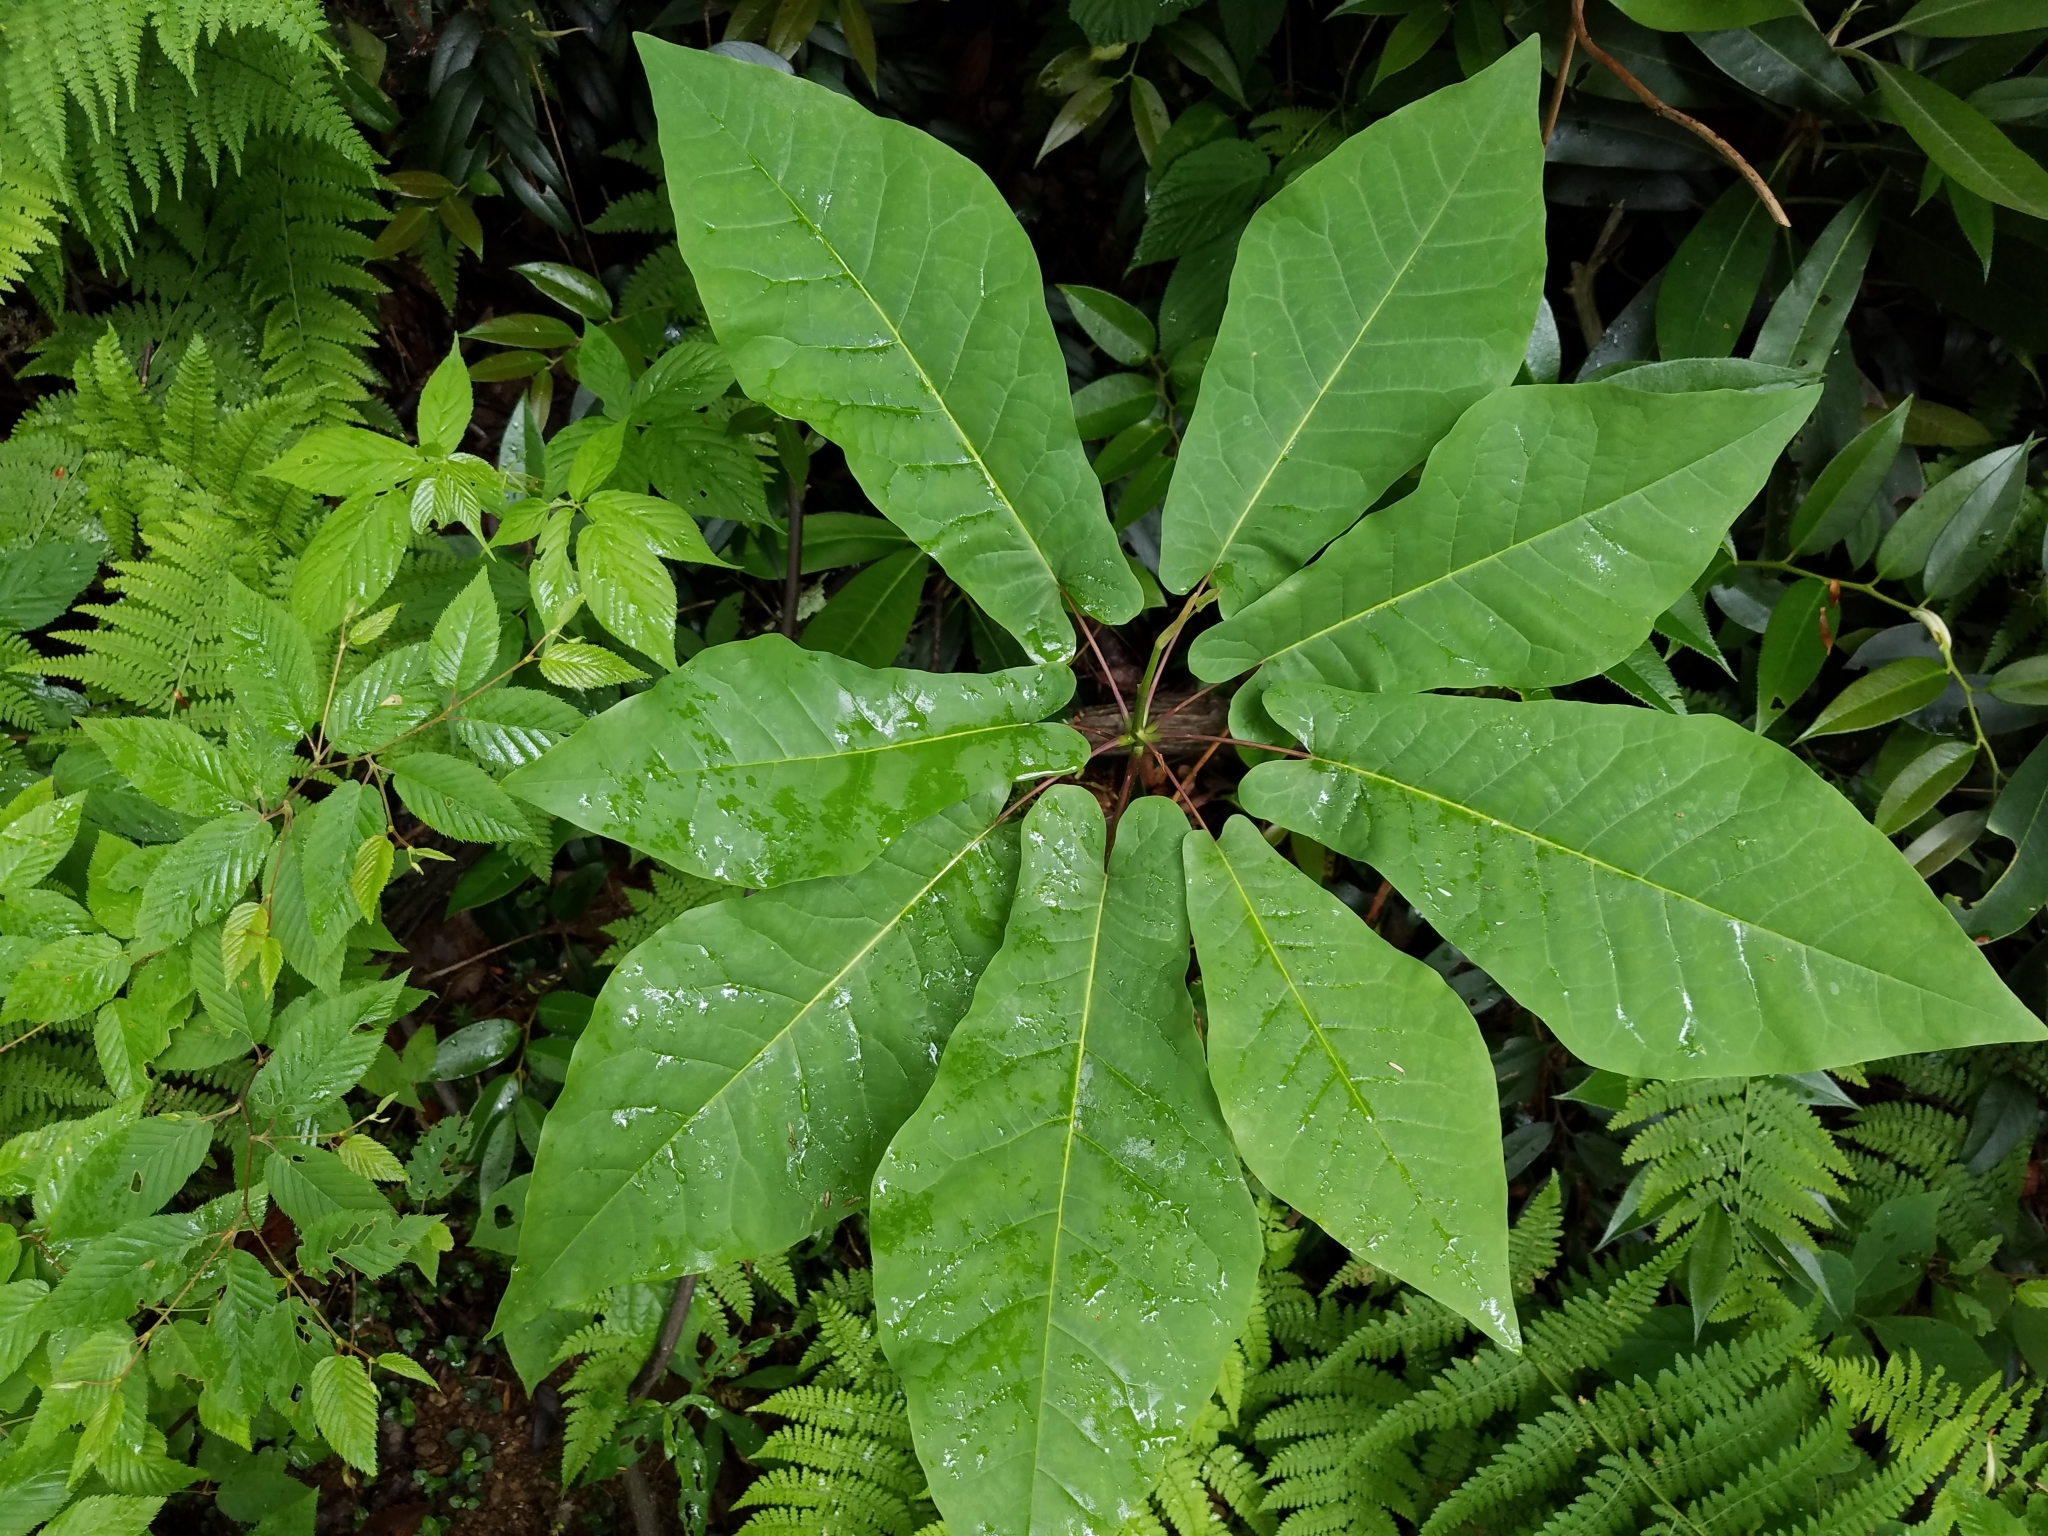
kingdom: Plantae
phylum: Tracheophyta
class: Magnoliopsida
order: Magnoliales
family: Magnoliaceae
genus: Magnolia
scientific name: Magnolia fraseri
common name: Fraser's magnolia
